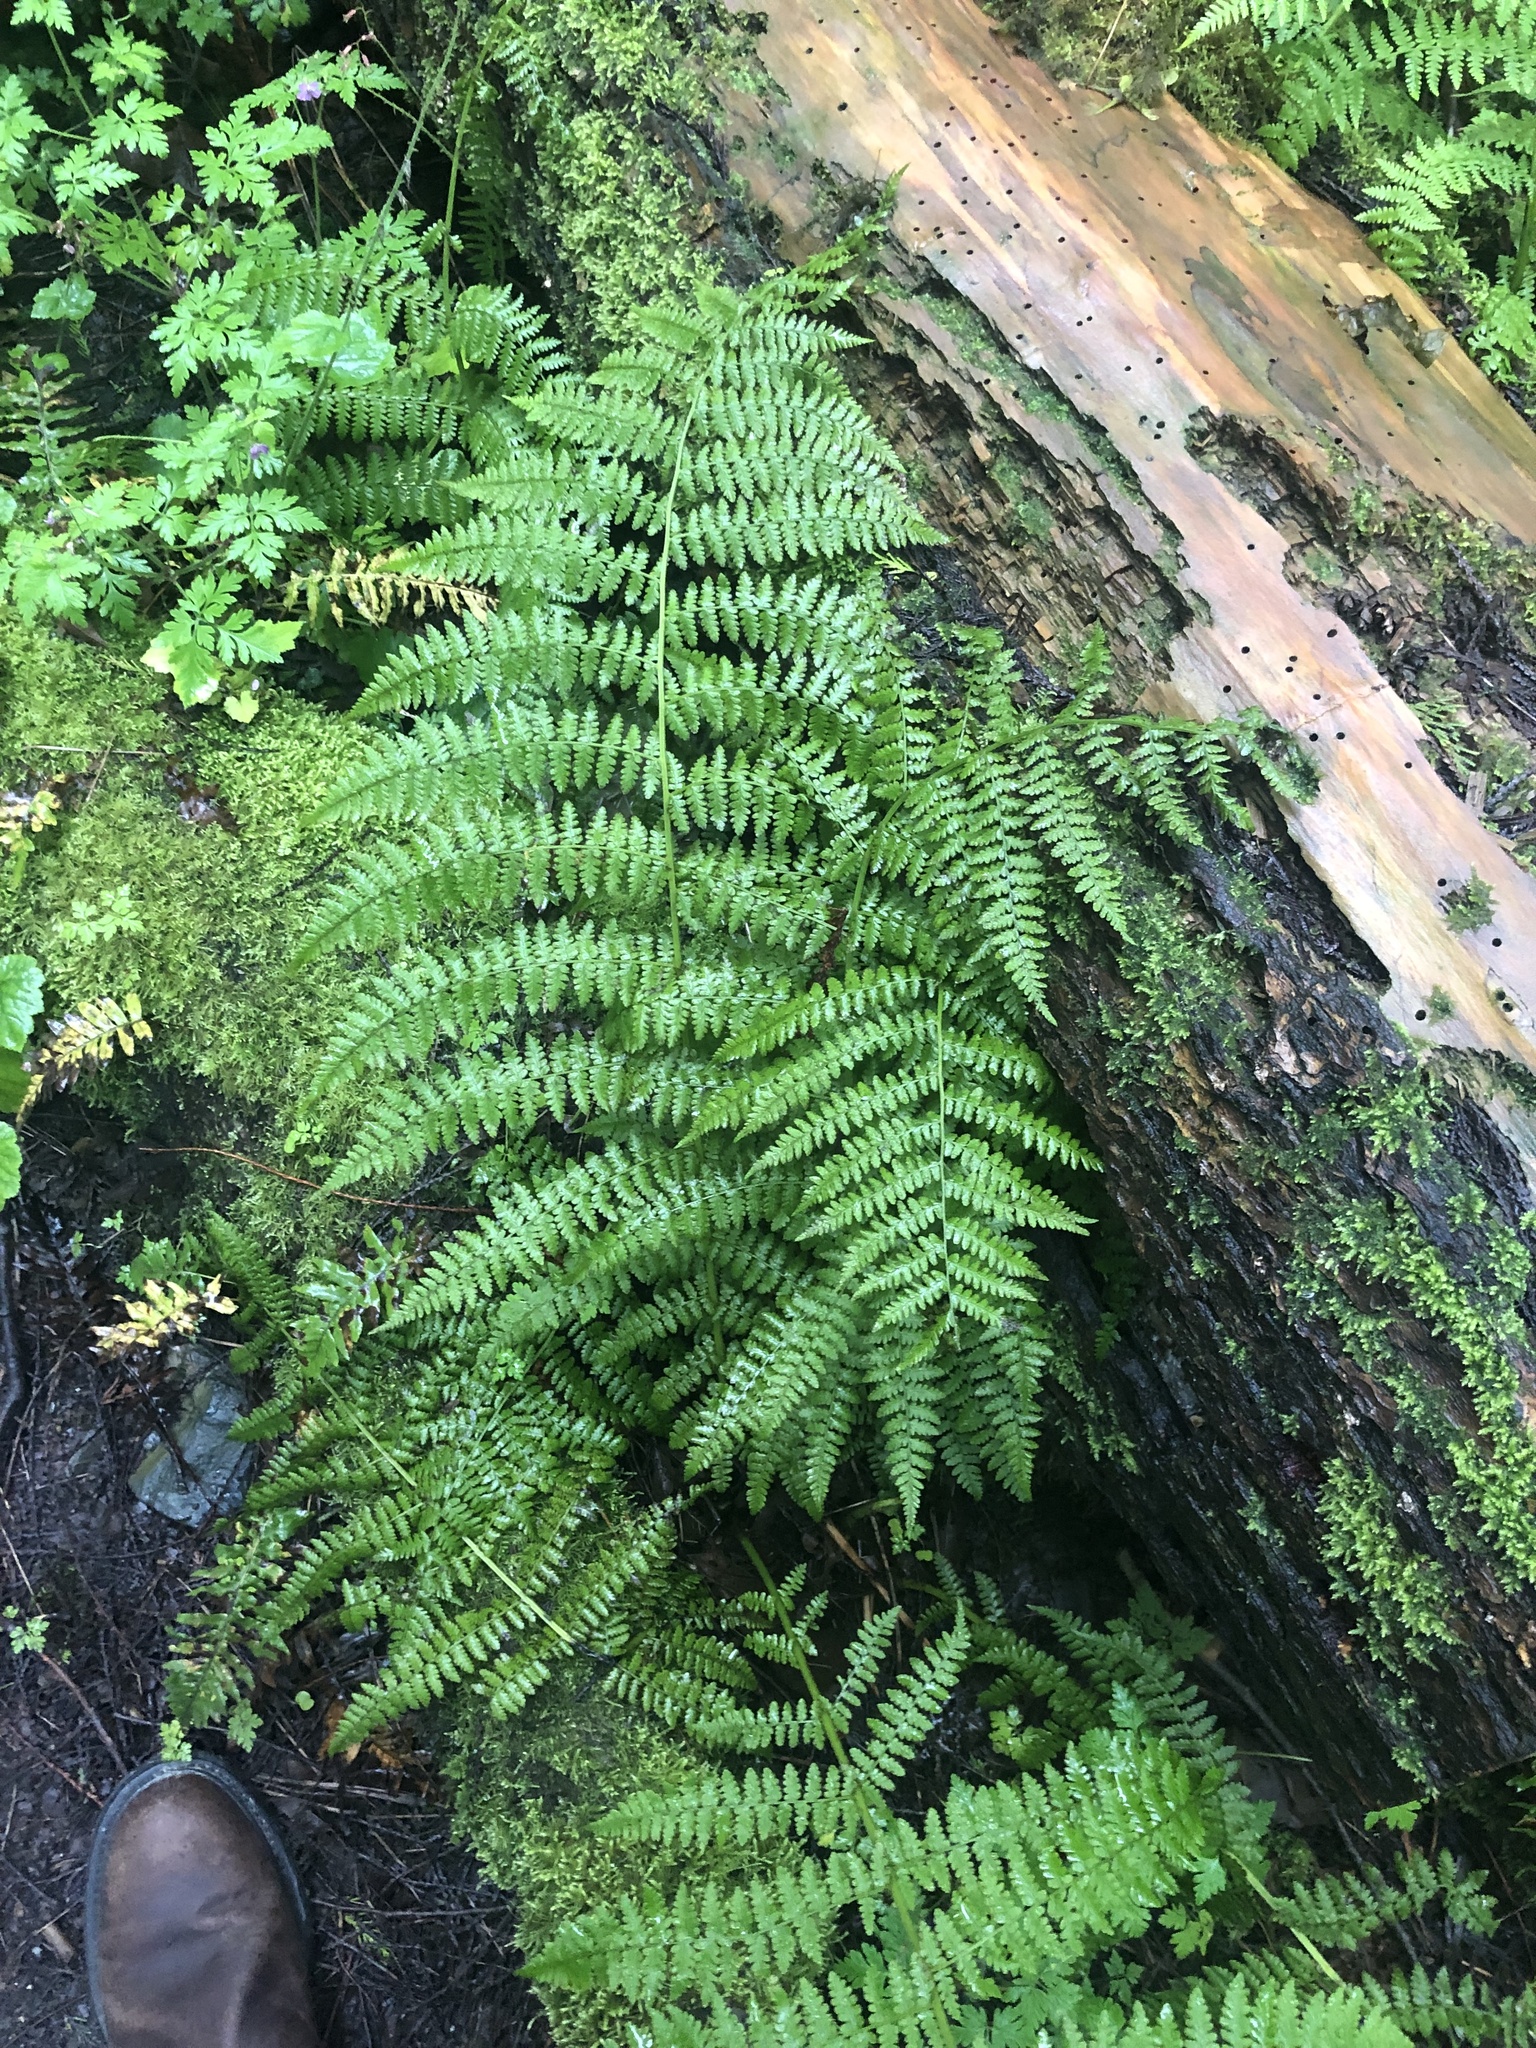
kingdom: Plantae
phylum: Tracheophyta
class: Polypodiopsida
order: Polypodiales
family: Athyriaceae
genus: Athyrium
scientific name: Athyrium cyclosorum
